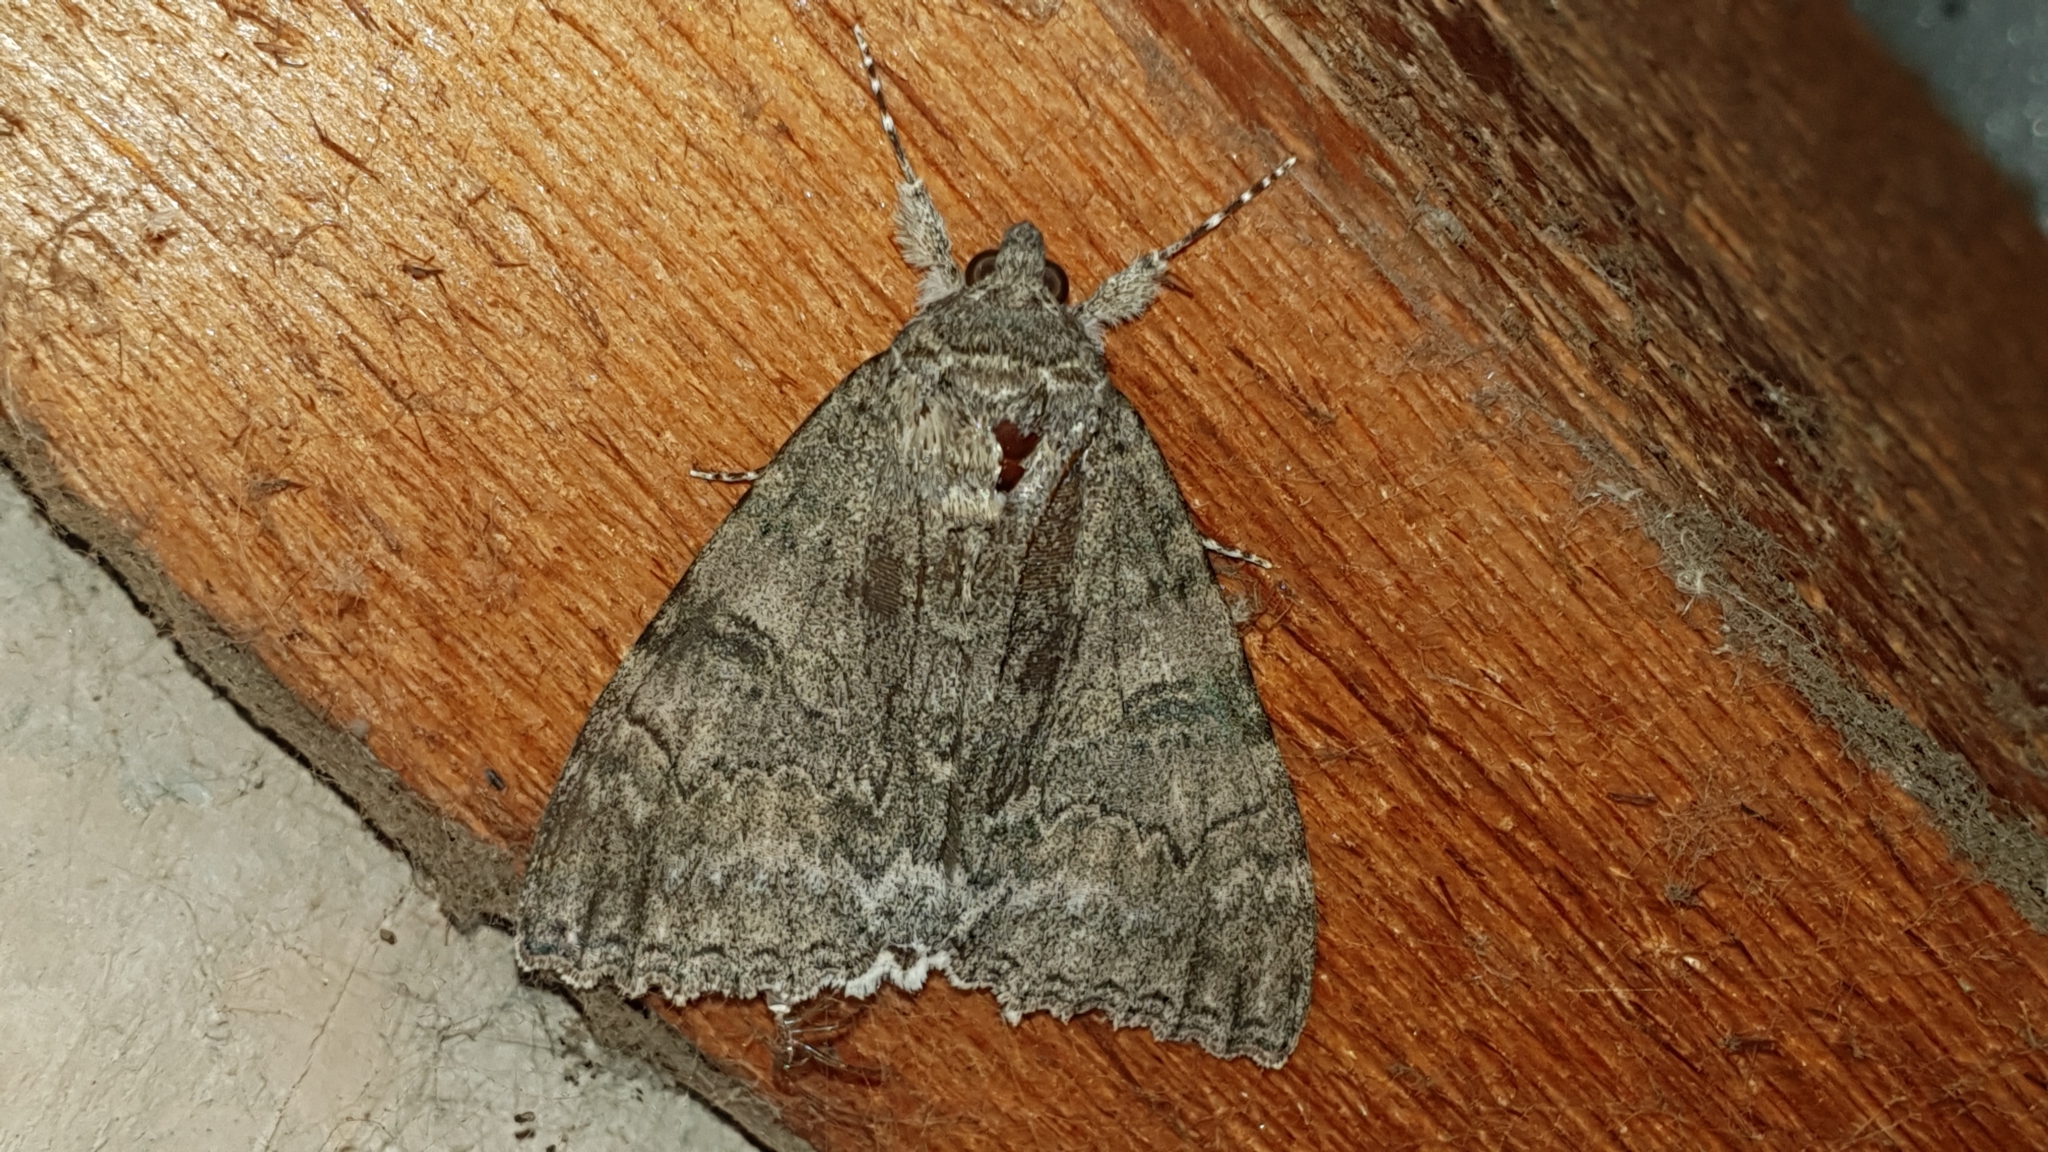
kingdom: Animalia
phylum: Arthropoda
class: Insecta
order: Lepidoptera
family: Erebidae
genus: Catocala
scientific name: Catocala nupta
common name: Red underwing
